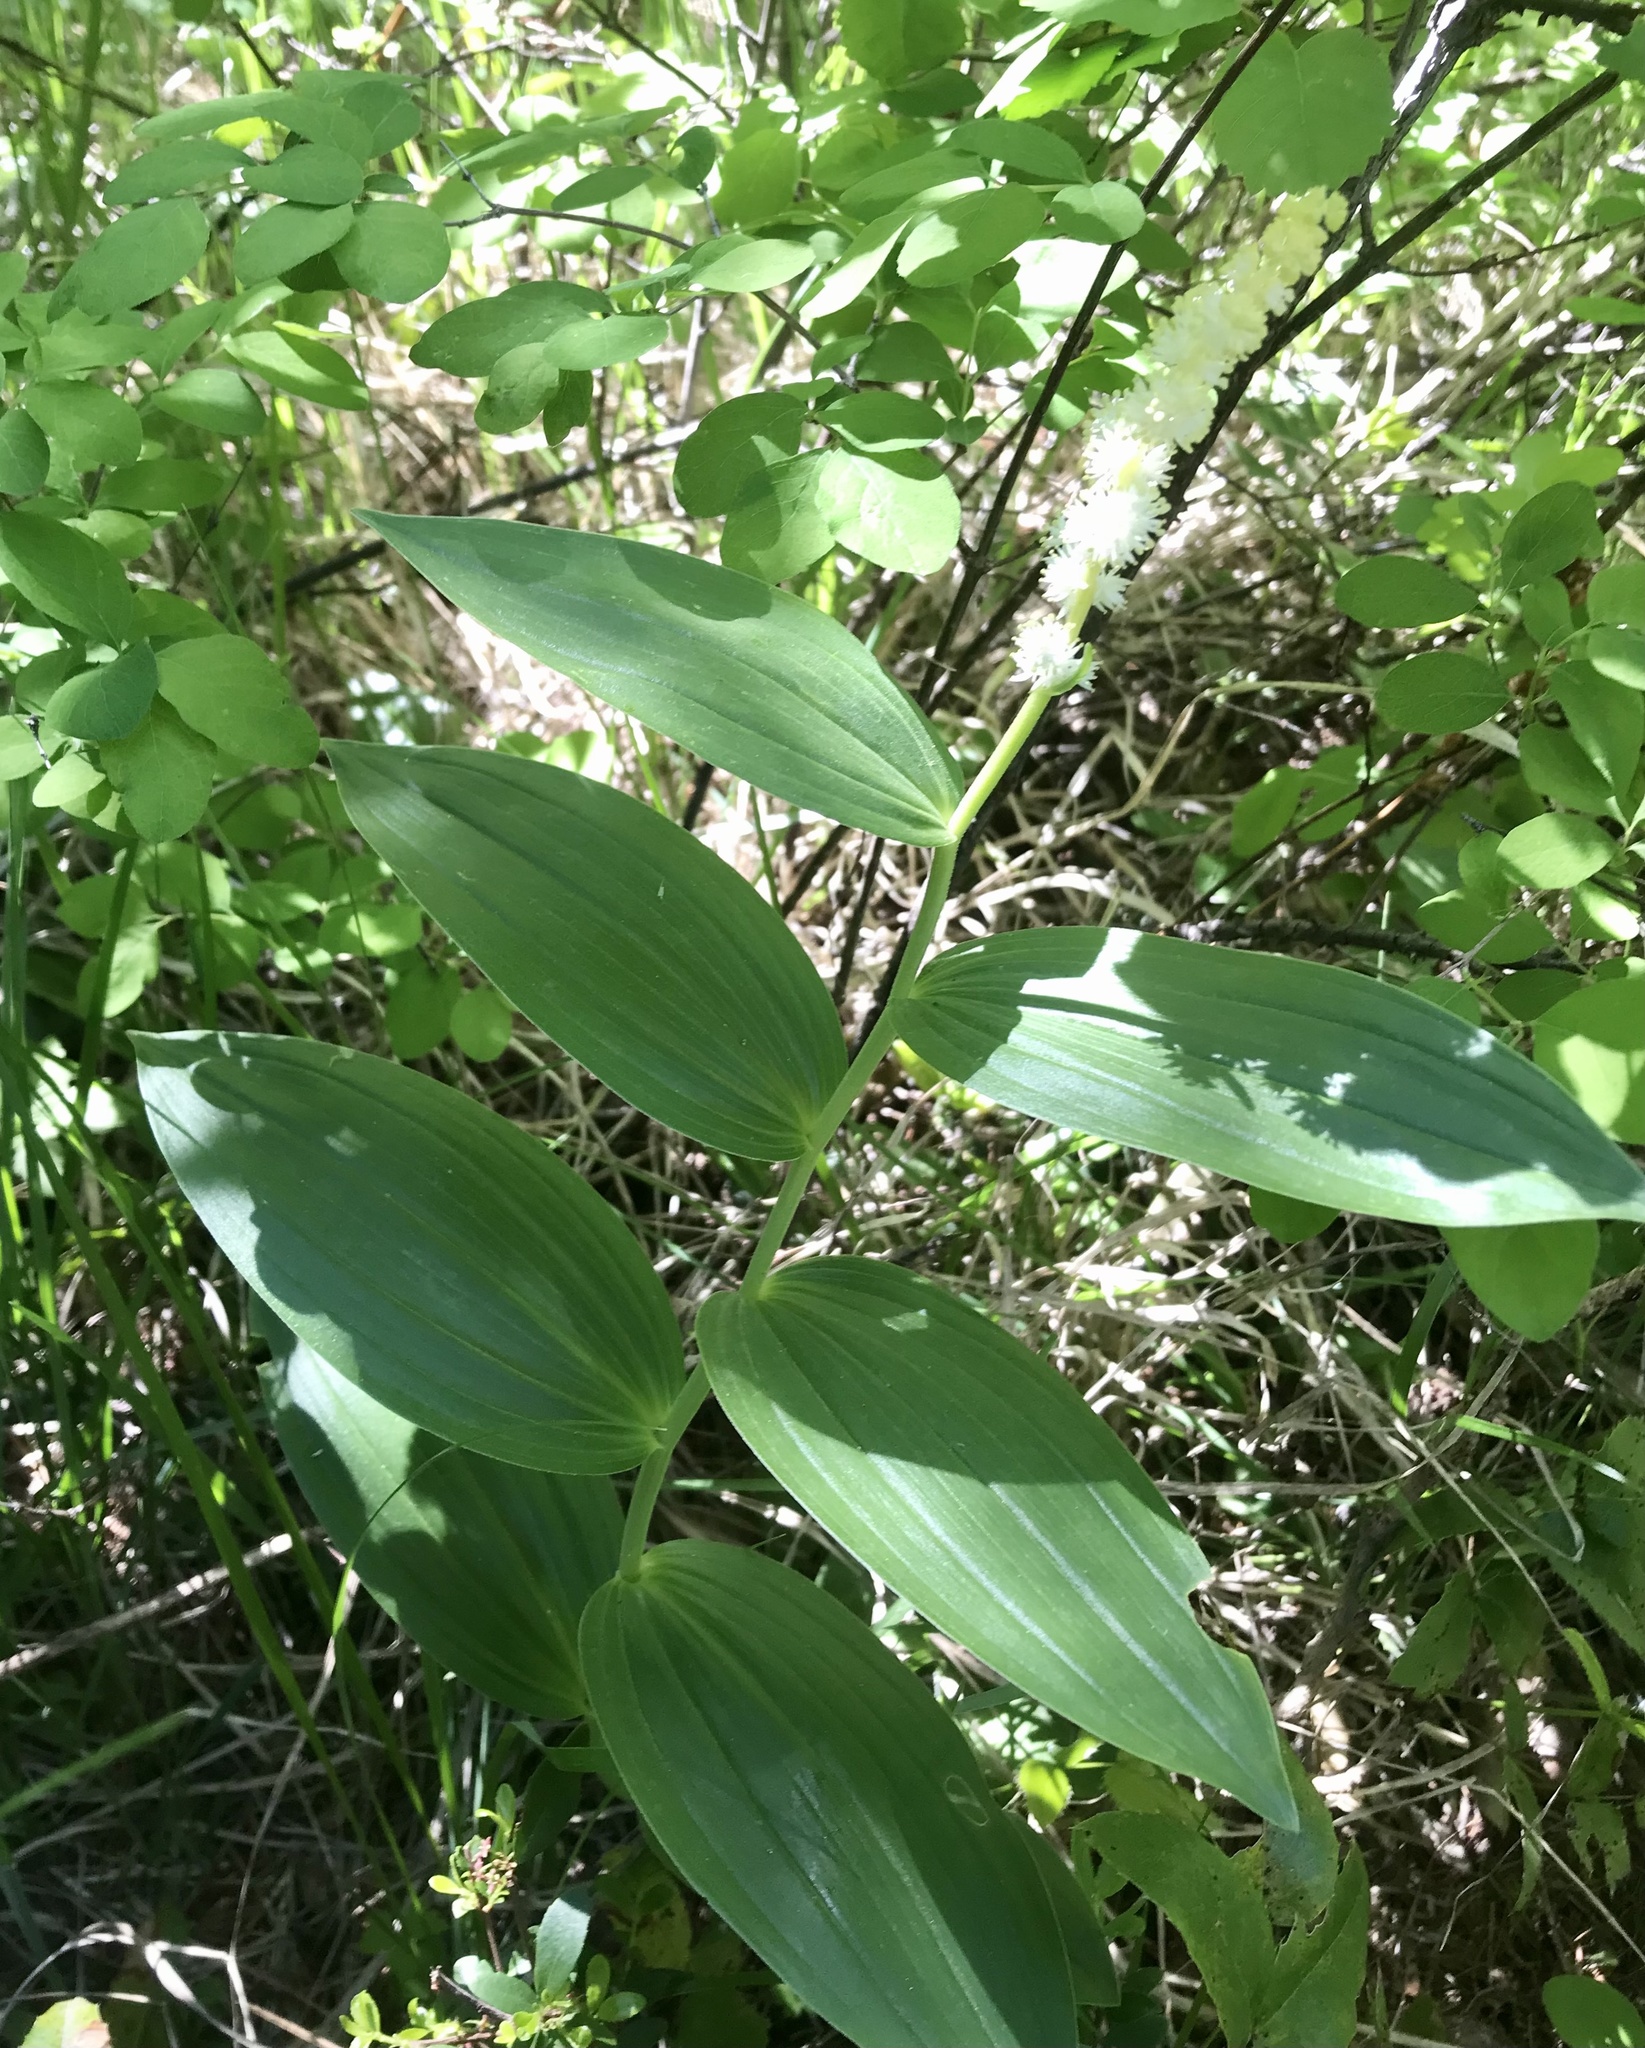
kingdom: Plantae
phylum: Tracheophyta
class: Liliopsida
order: Asparagales
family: Asparagaceae
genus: Maianthemum
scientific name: Maianthemum racemosum
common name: False spikenard
